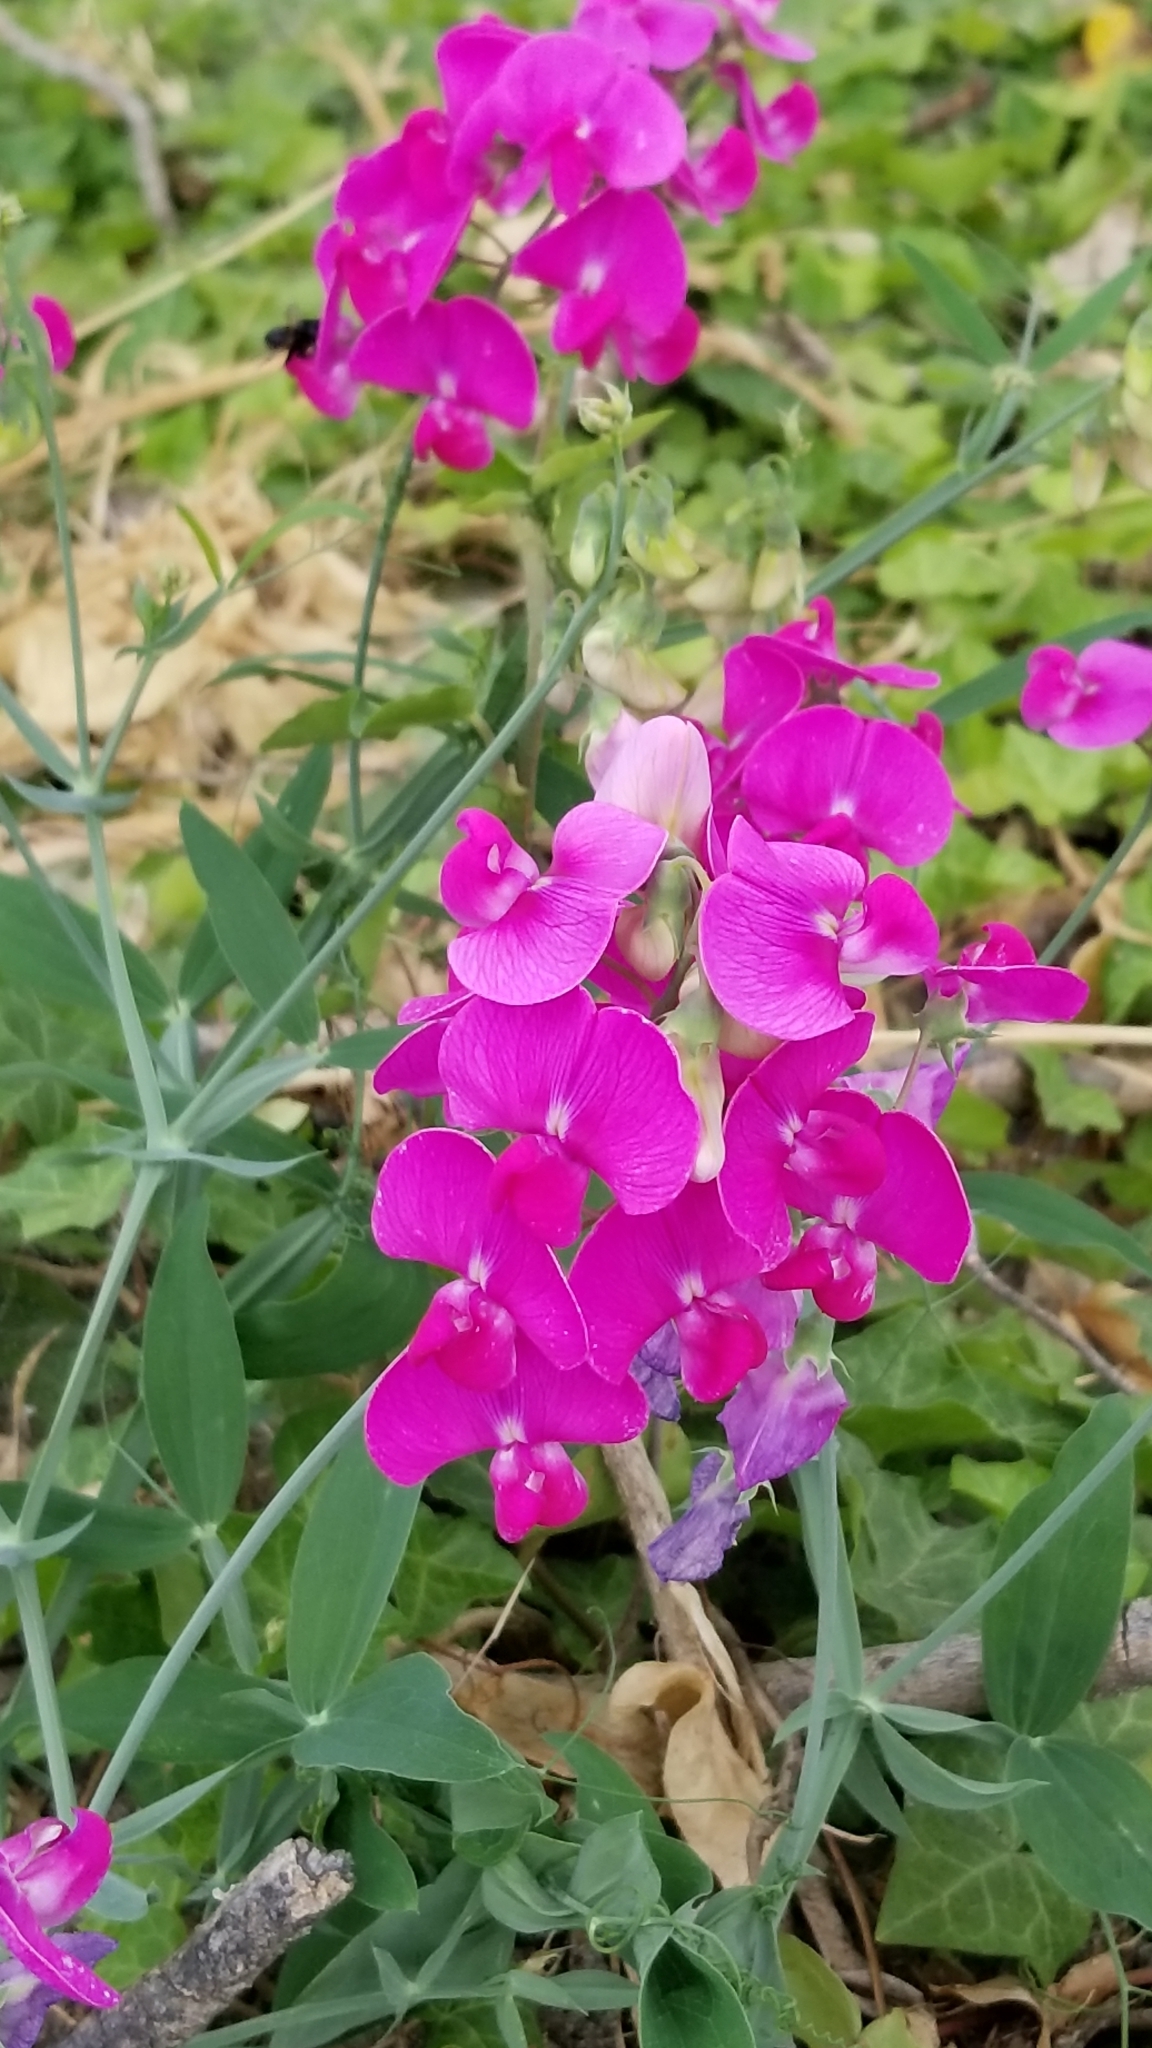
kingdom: Plantae
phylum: Tracheophyta
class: Magnoliopsida
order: Fabales
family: Fabaceae
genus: Lathyrus
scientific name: Lathyrus latifolius
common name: Perennial pea
